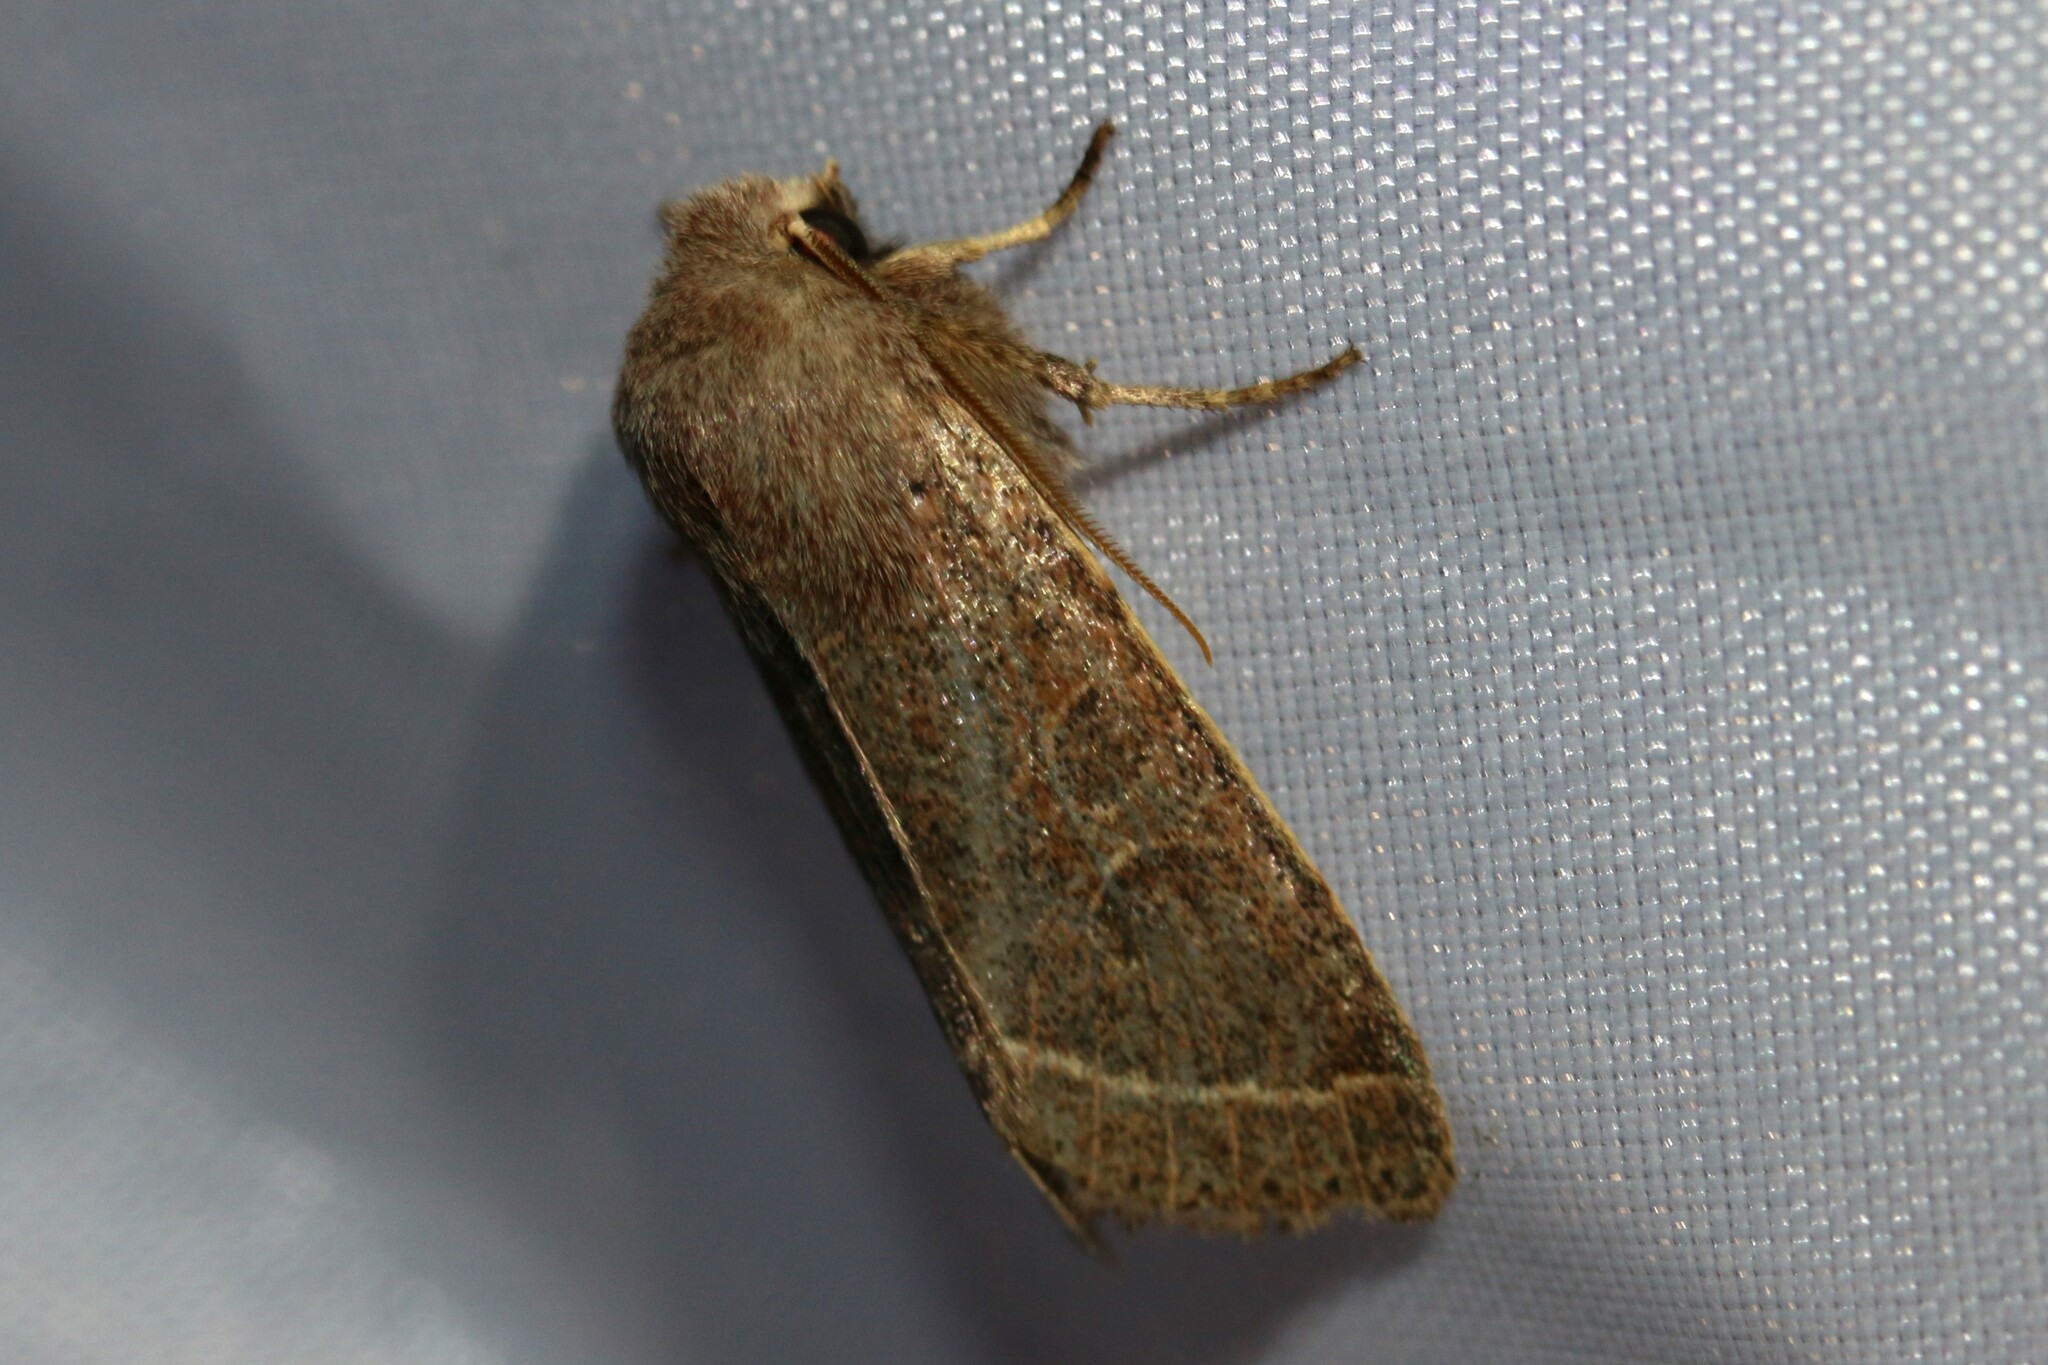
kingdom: Animalia
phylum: Arthropoda
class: Insecta
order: Lepidoptera
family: Noctuidae
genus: Orthosia
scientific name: Orthosia cerasi
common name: Common quaker
